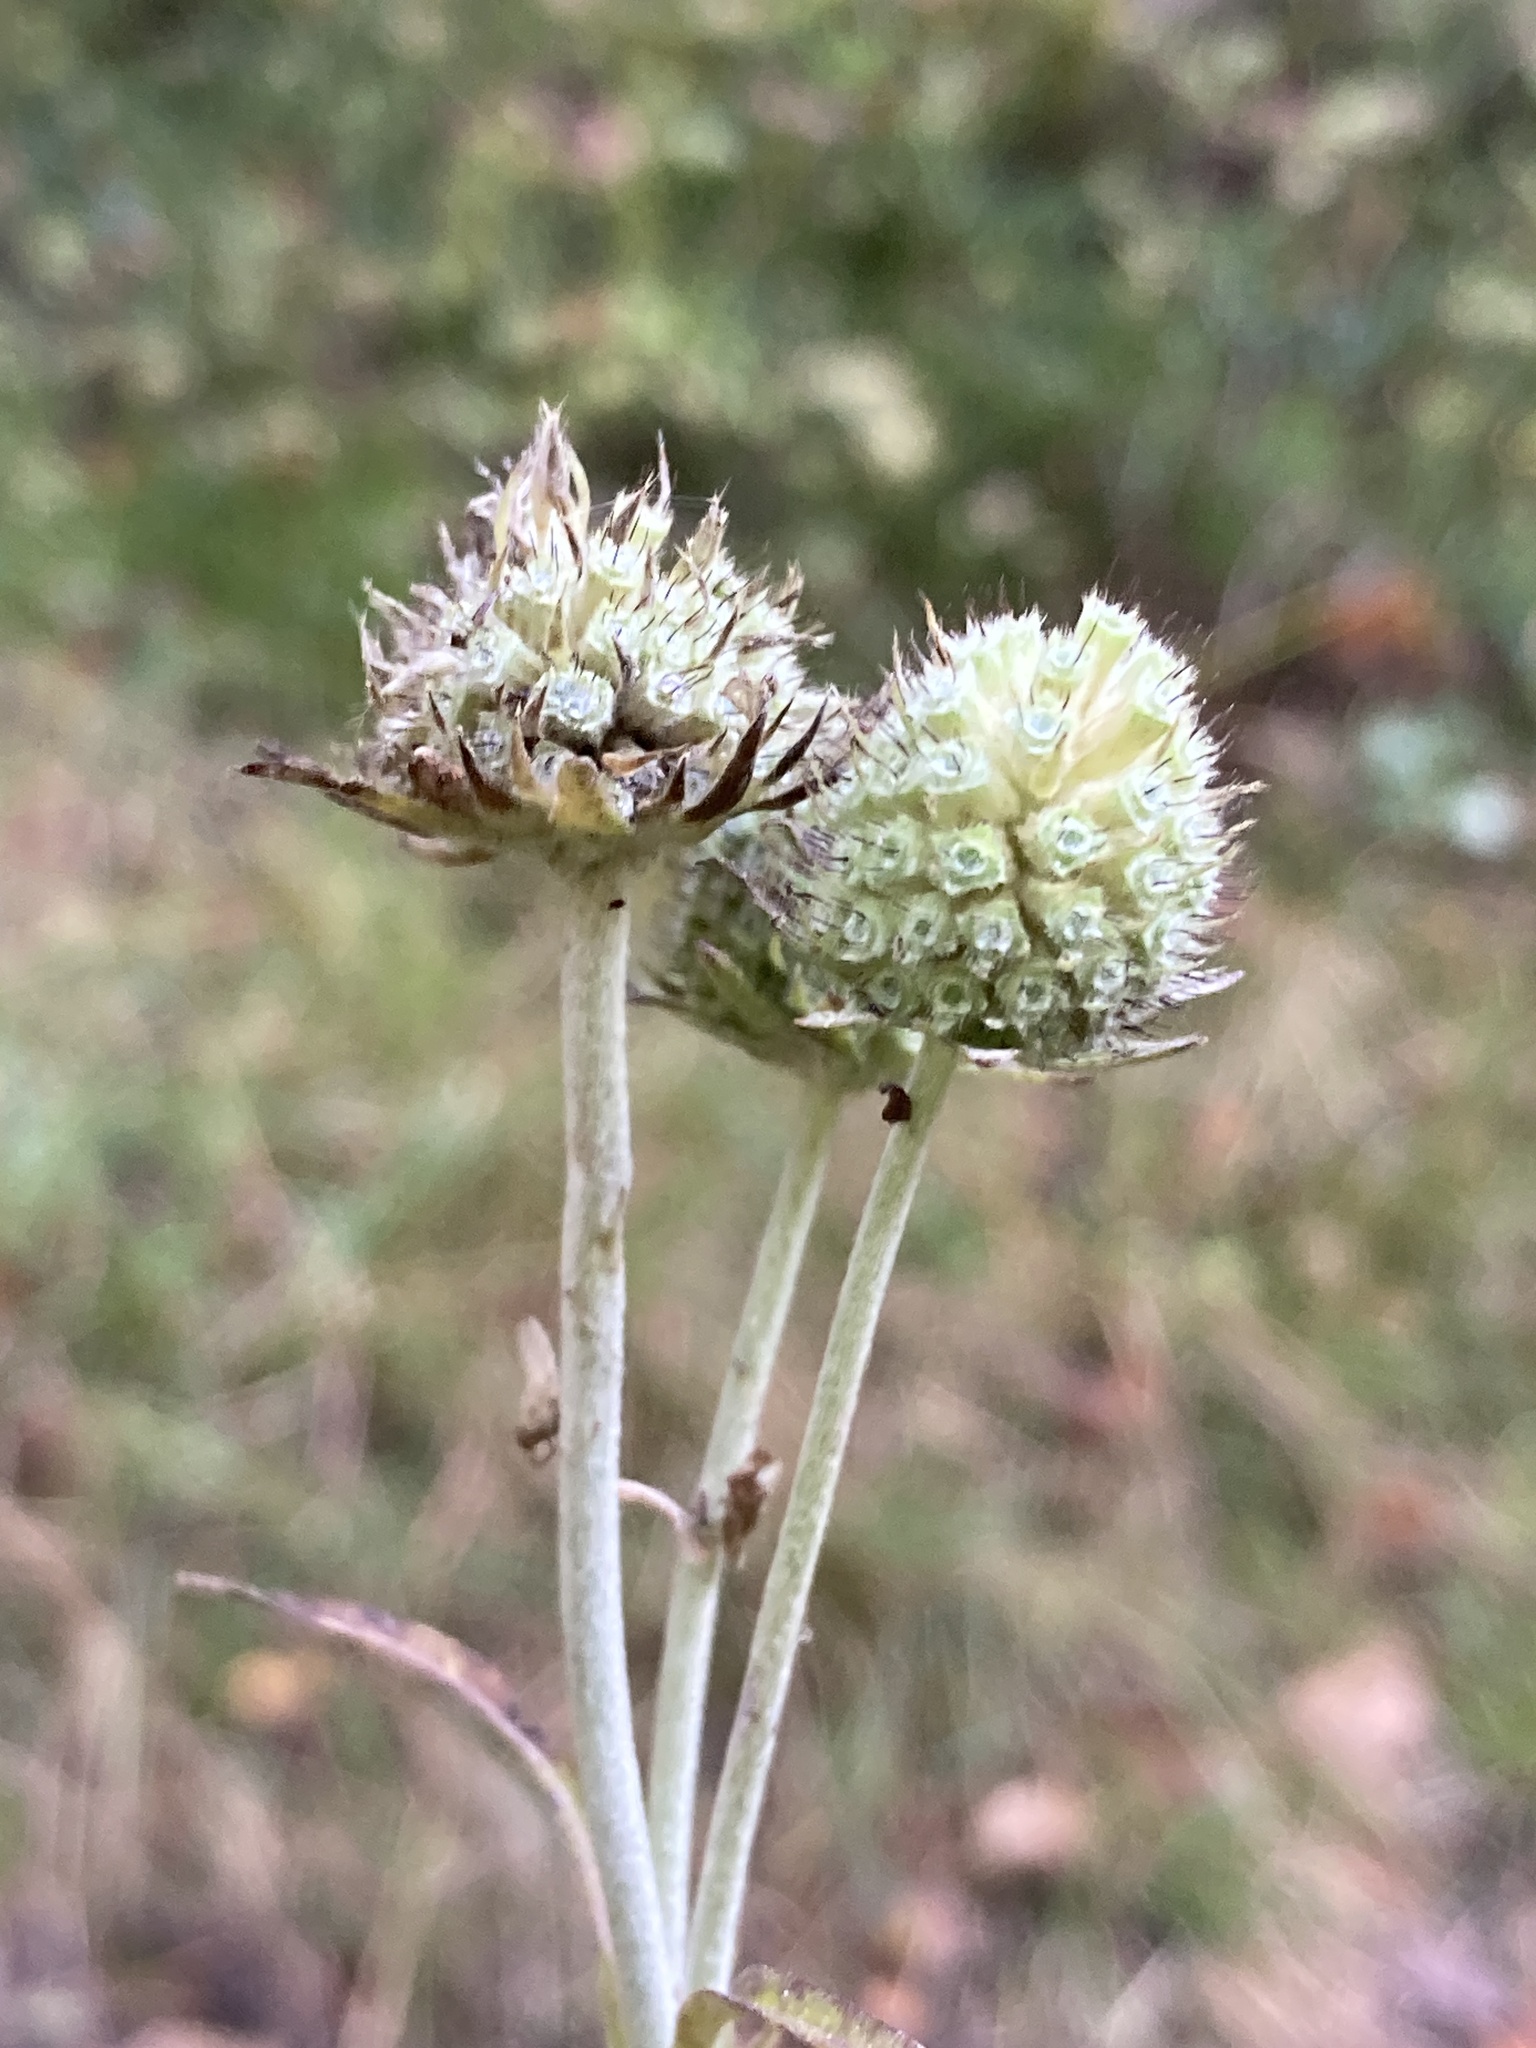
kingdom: Plantae
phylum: Tracheophyta
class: Magnoliopsida
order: Dipsacales
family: Caprifoliaceae
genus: Succisa
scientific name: Succisa pratensis
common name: Devil's-bit
